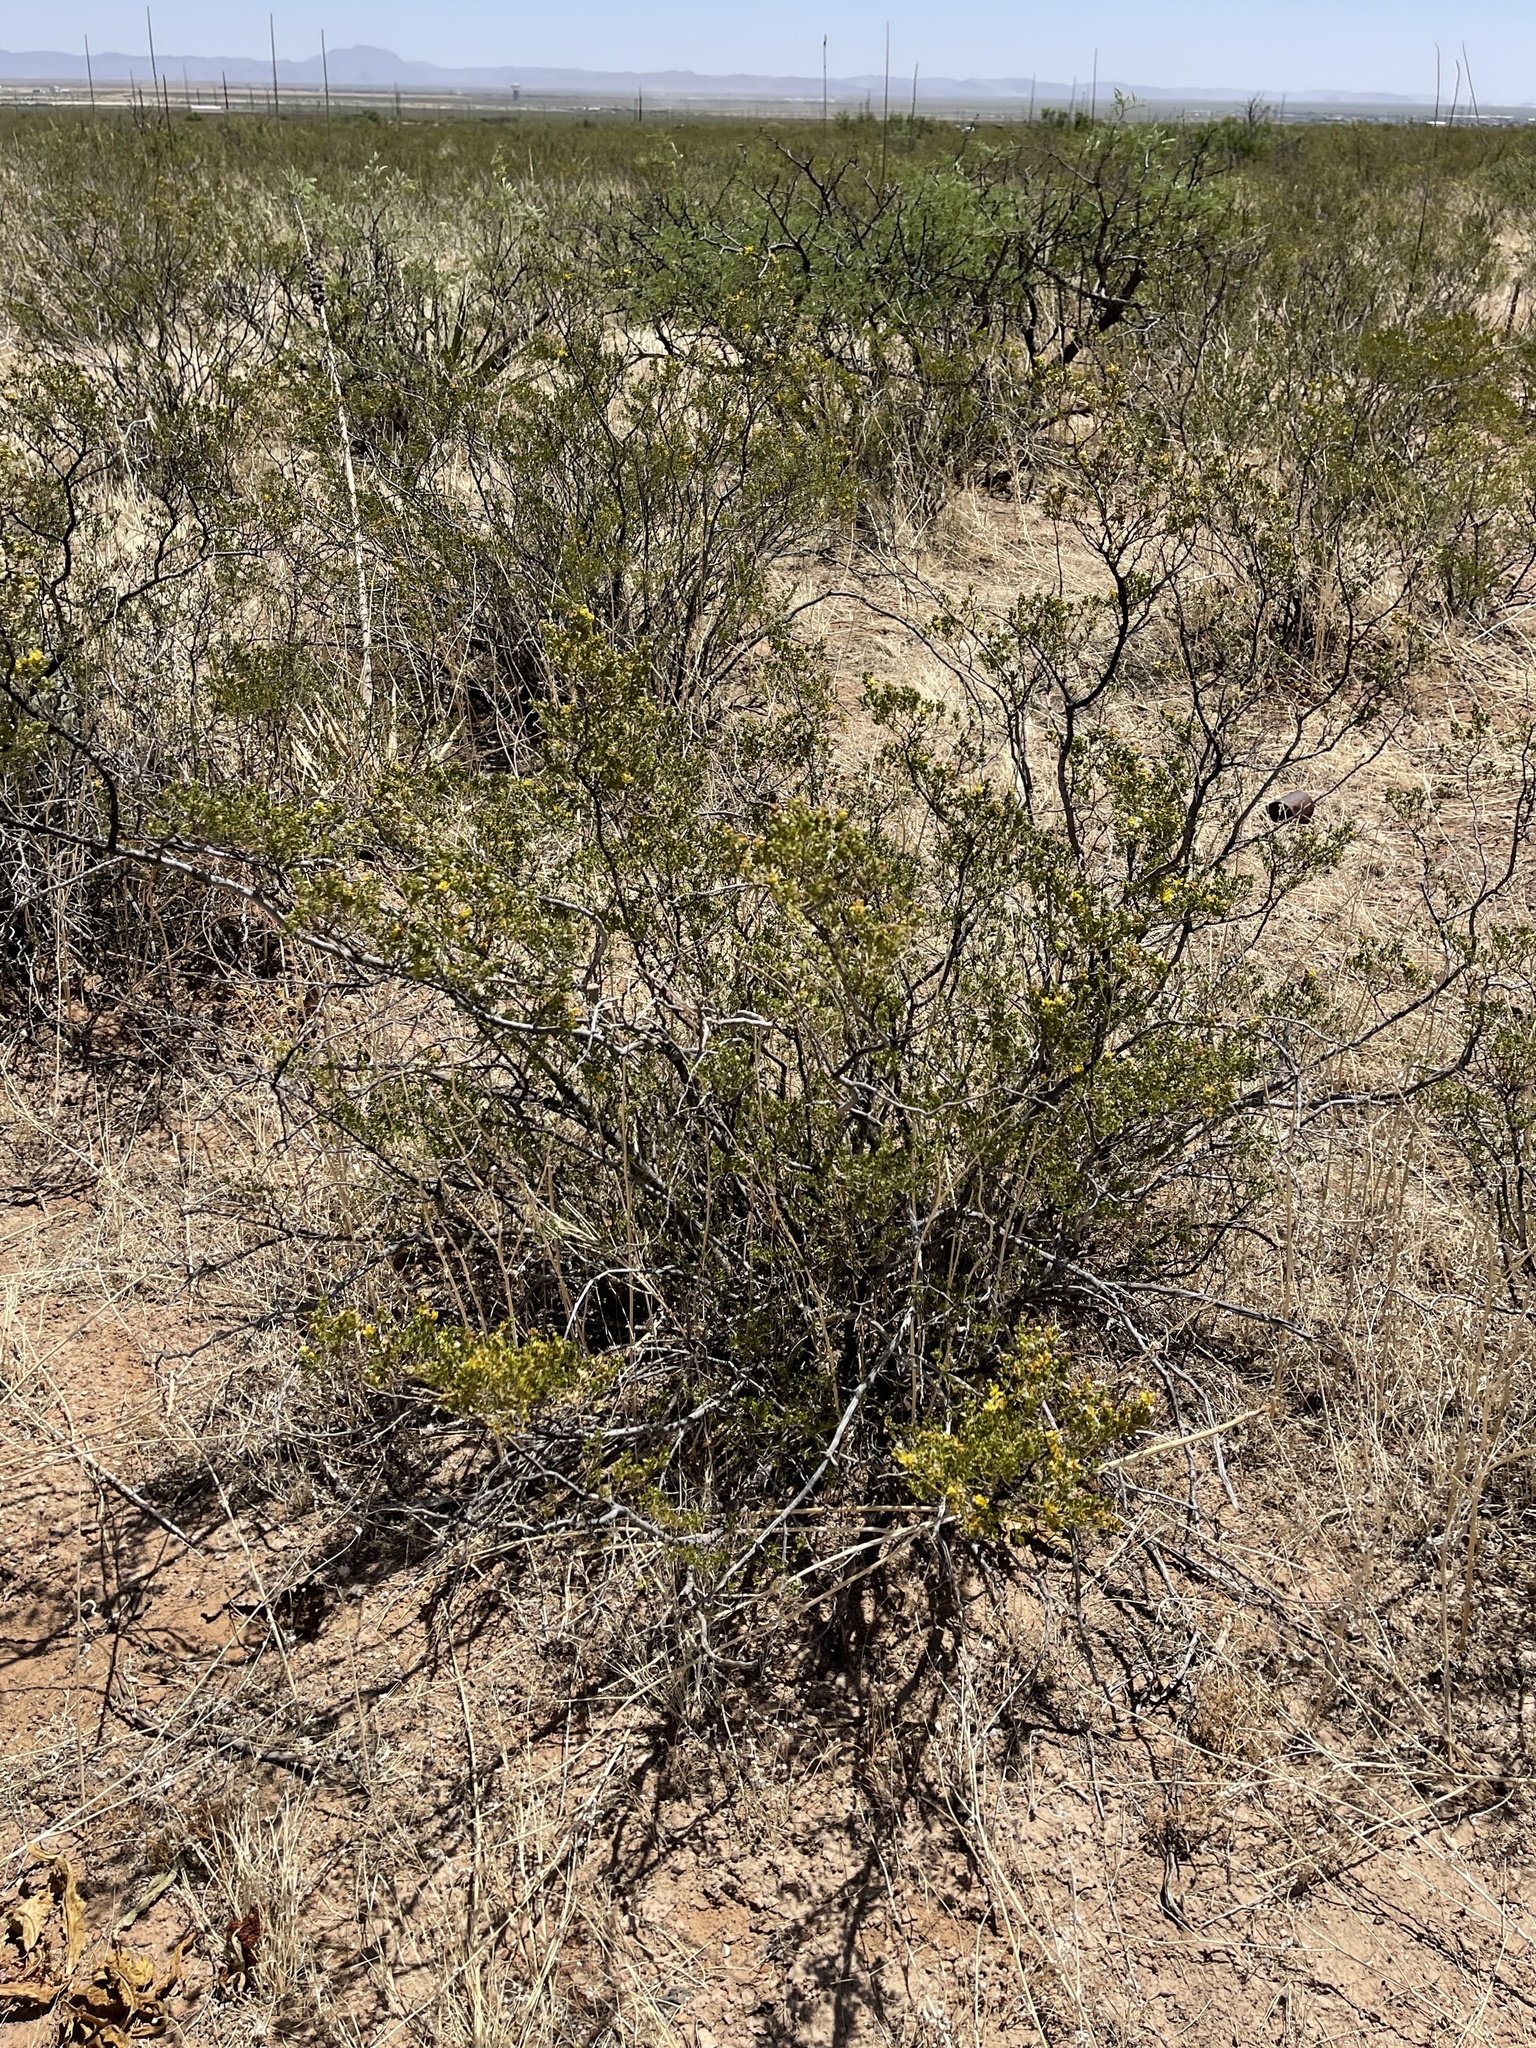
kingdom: Plantae
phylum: Tracheophyta
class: Magnoliopsida
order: Zygophyllales
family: Zygophyllaceae
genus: Larrea
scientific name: Larrea tridentata
